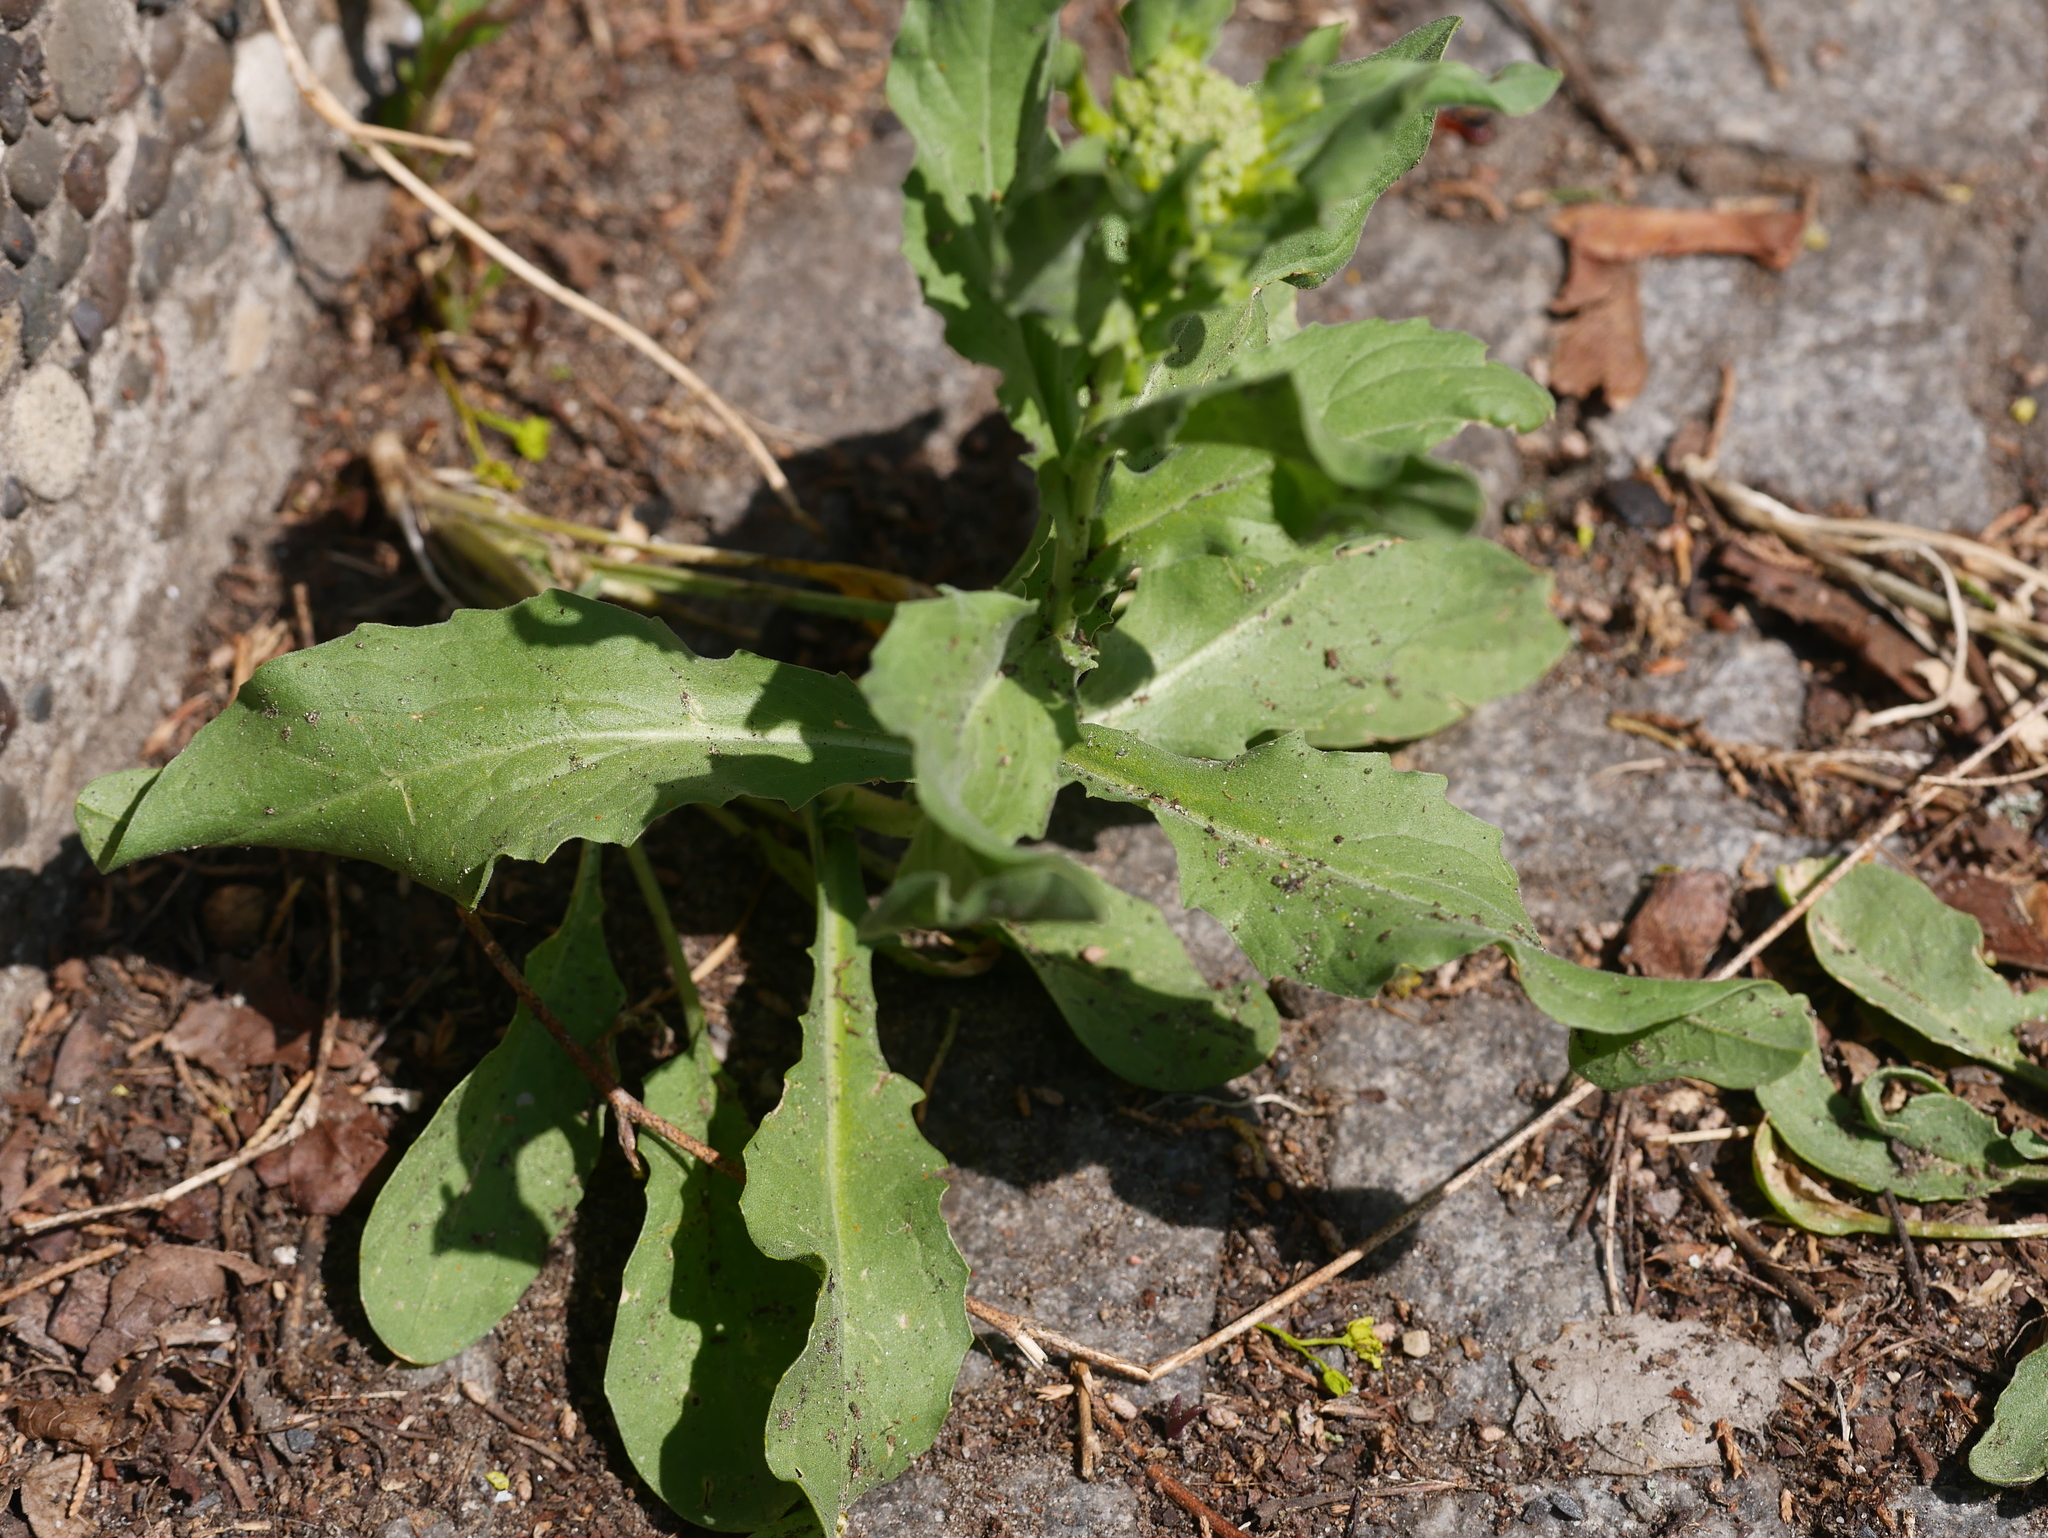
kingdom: Plantae
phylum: Tracheophyta
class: Magnoliopsida
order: Brassicales
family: Brassicaceae
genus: Lepidium
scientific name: Lepidium draba
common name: Hoary cress
